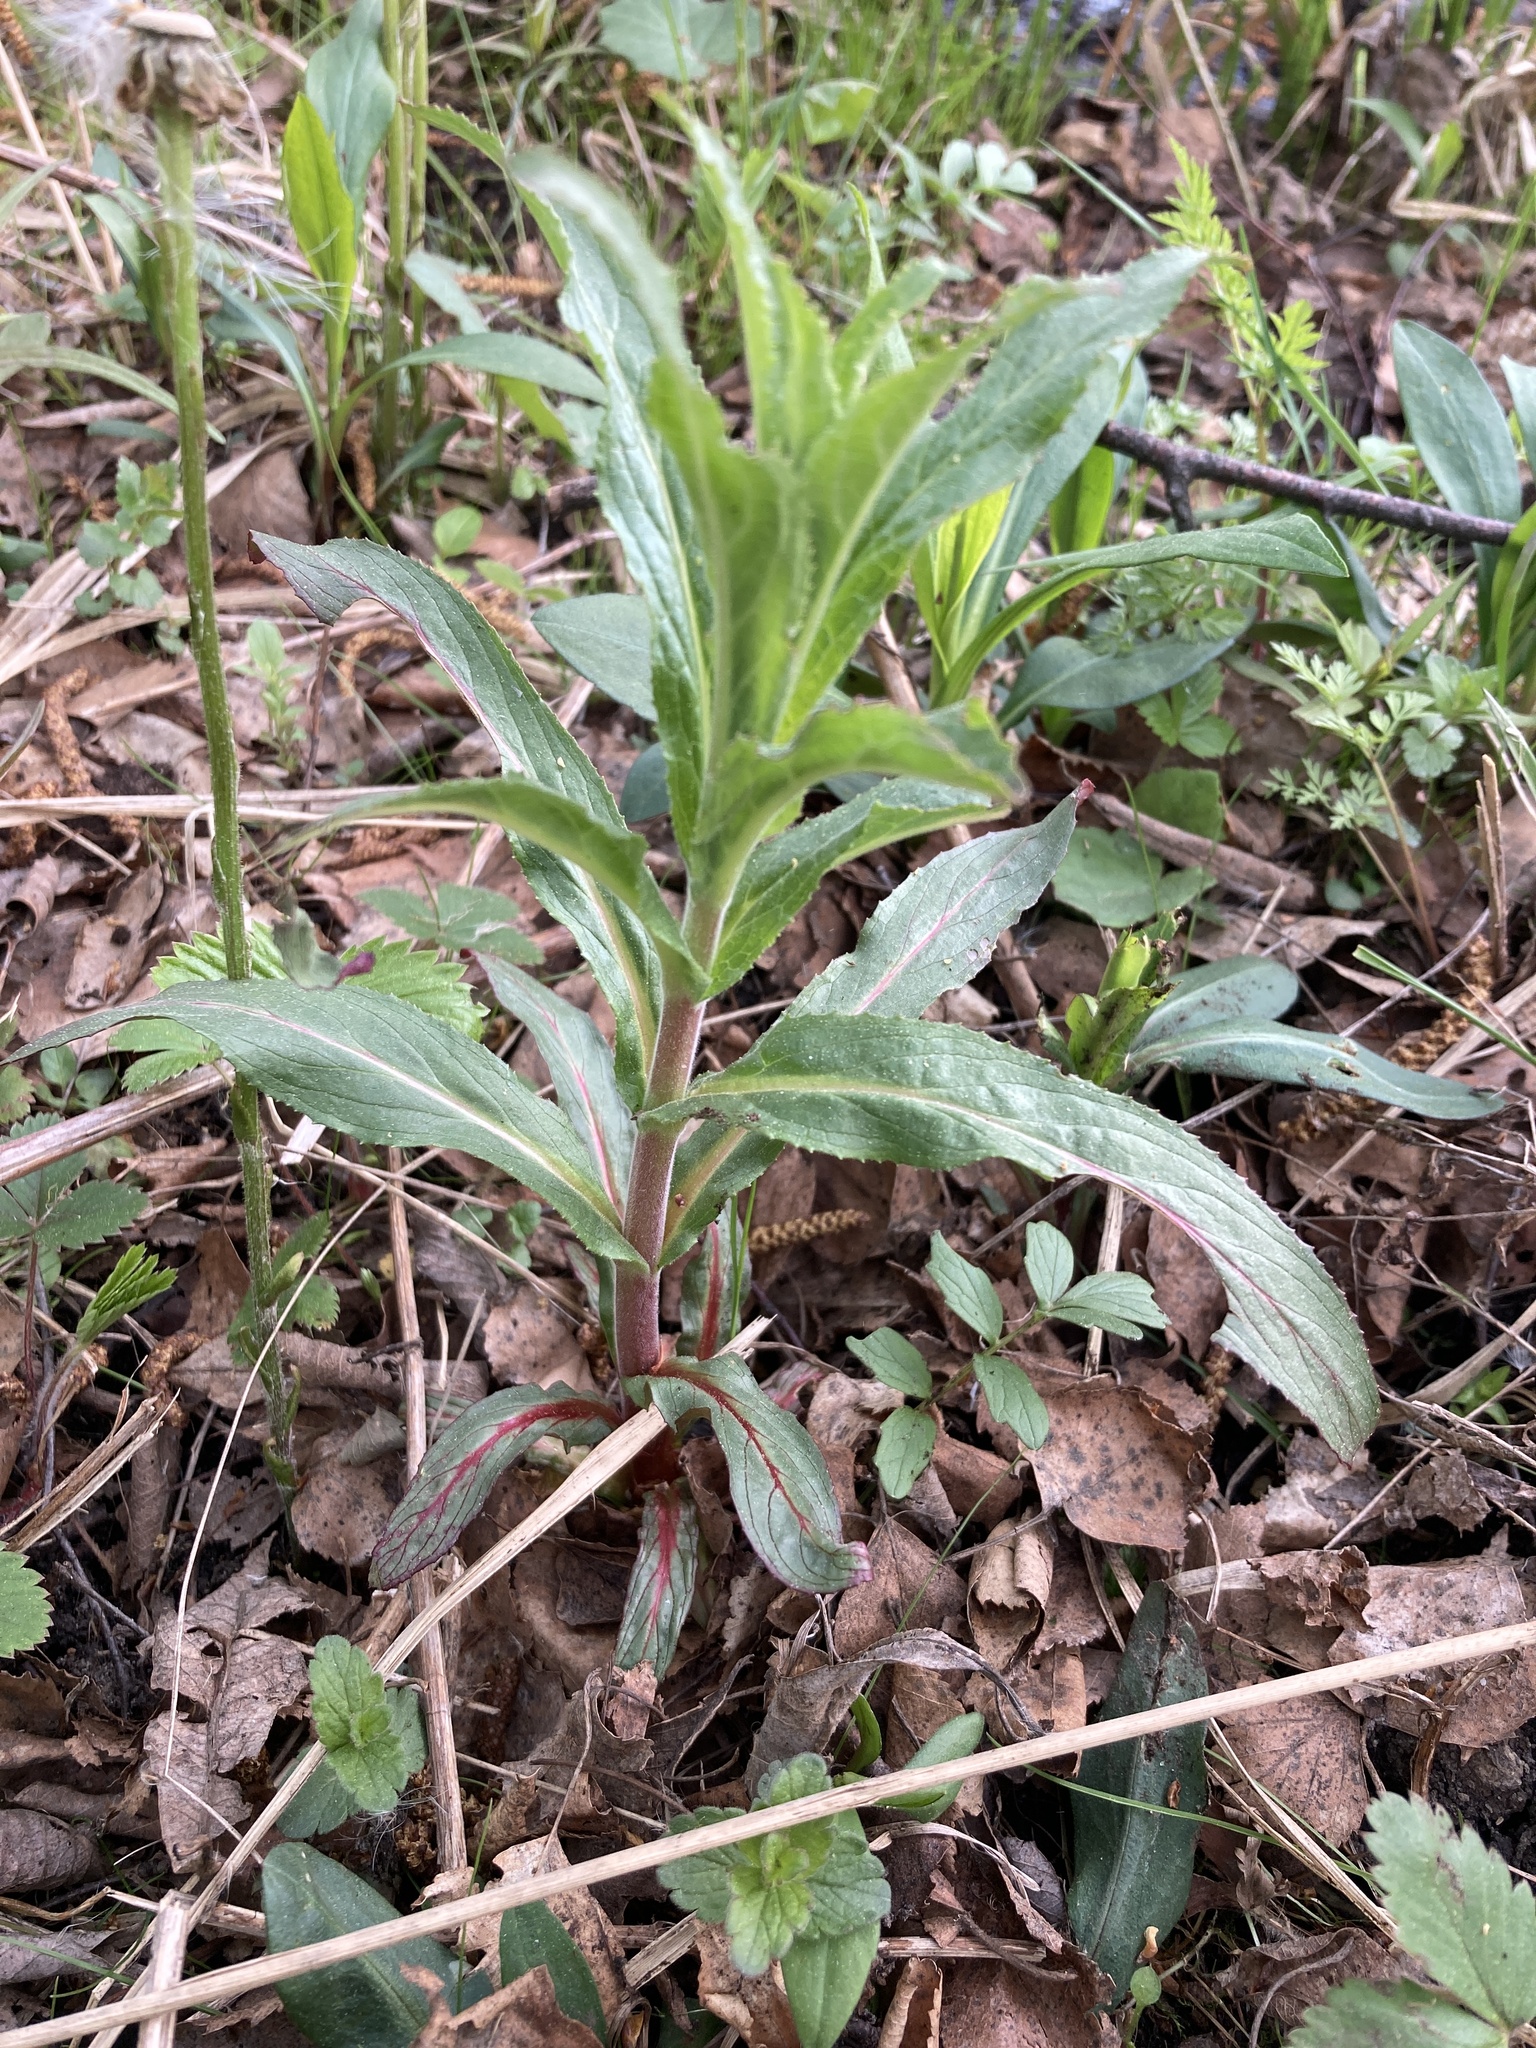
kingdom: Plantae
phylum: Tracheophyta
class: Magnoliopsida
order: Myrtales
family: Onagraceae
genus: Epilobium
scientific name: Epilobium hirsutum
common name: Great willowherb
